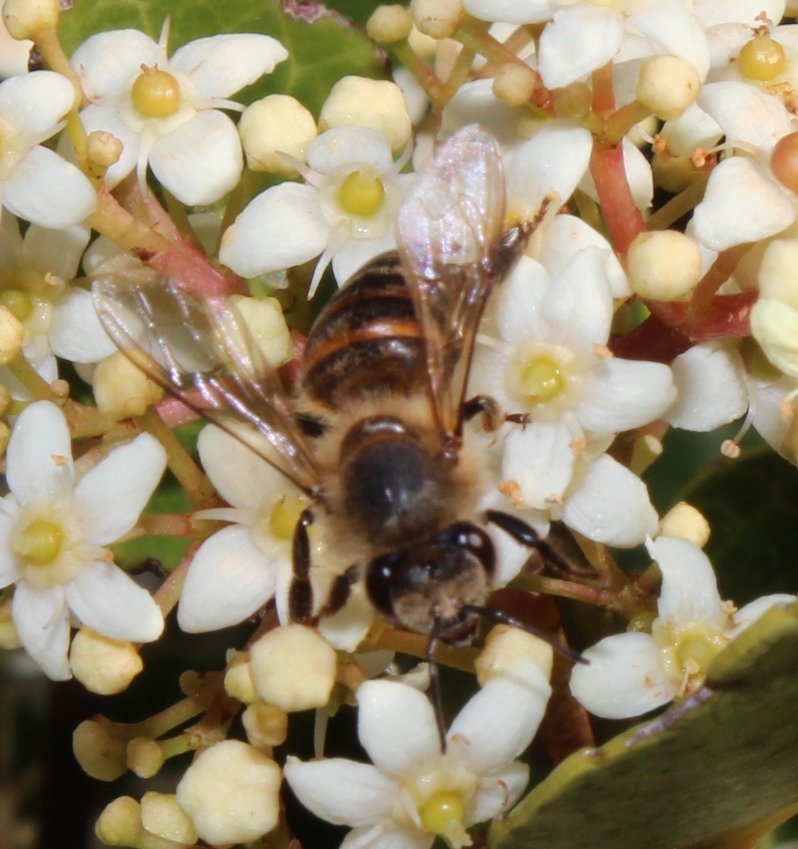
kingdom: Animalia
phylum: Arthropoda
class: Insecta
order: Hymenoptera
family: Apidae
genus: Apis
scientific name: Apis mellifera
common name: Honey bee
